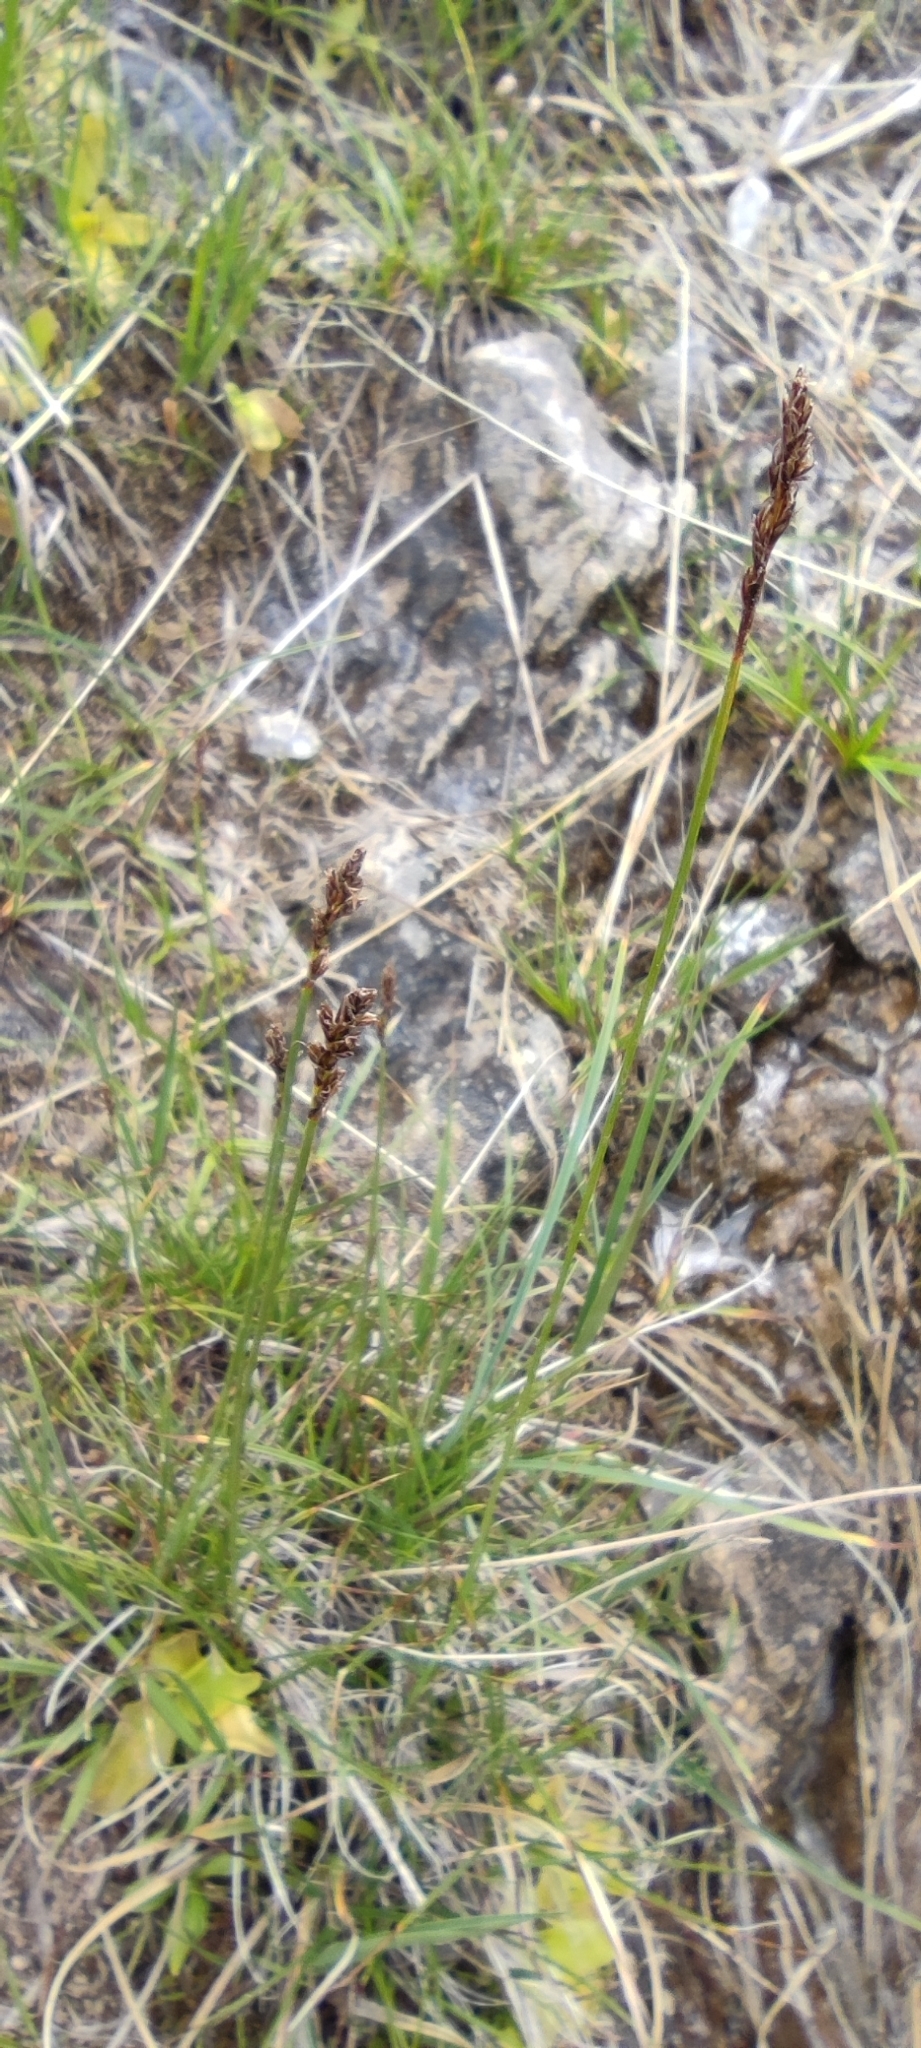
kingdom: Plantae
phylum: Tracheophyta
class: Liliopsida
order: Poales
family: Cyperaceae
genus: Carex
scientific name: Carex simpliciuscula
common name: Simple bog sedge
